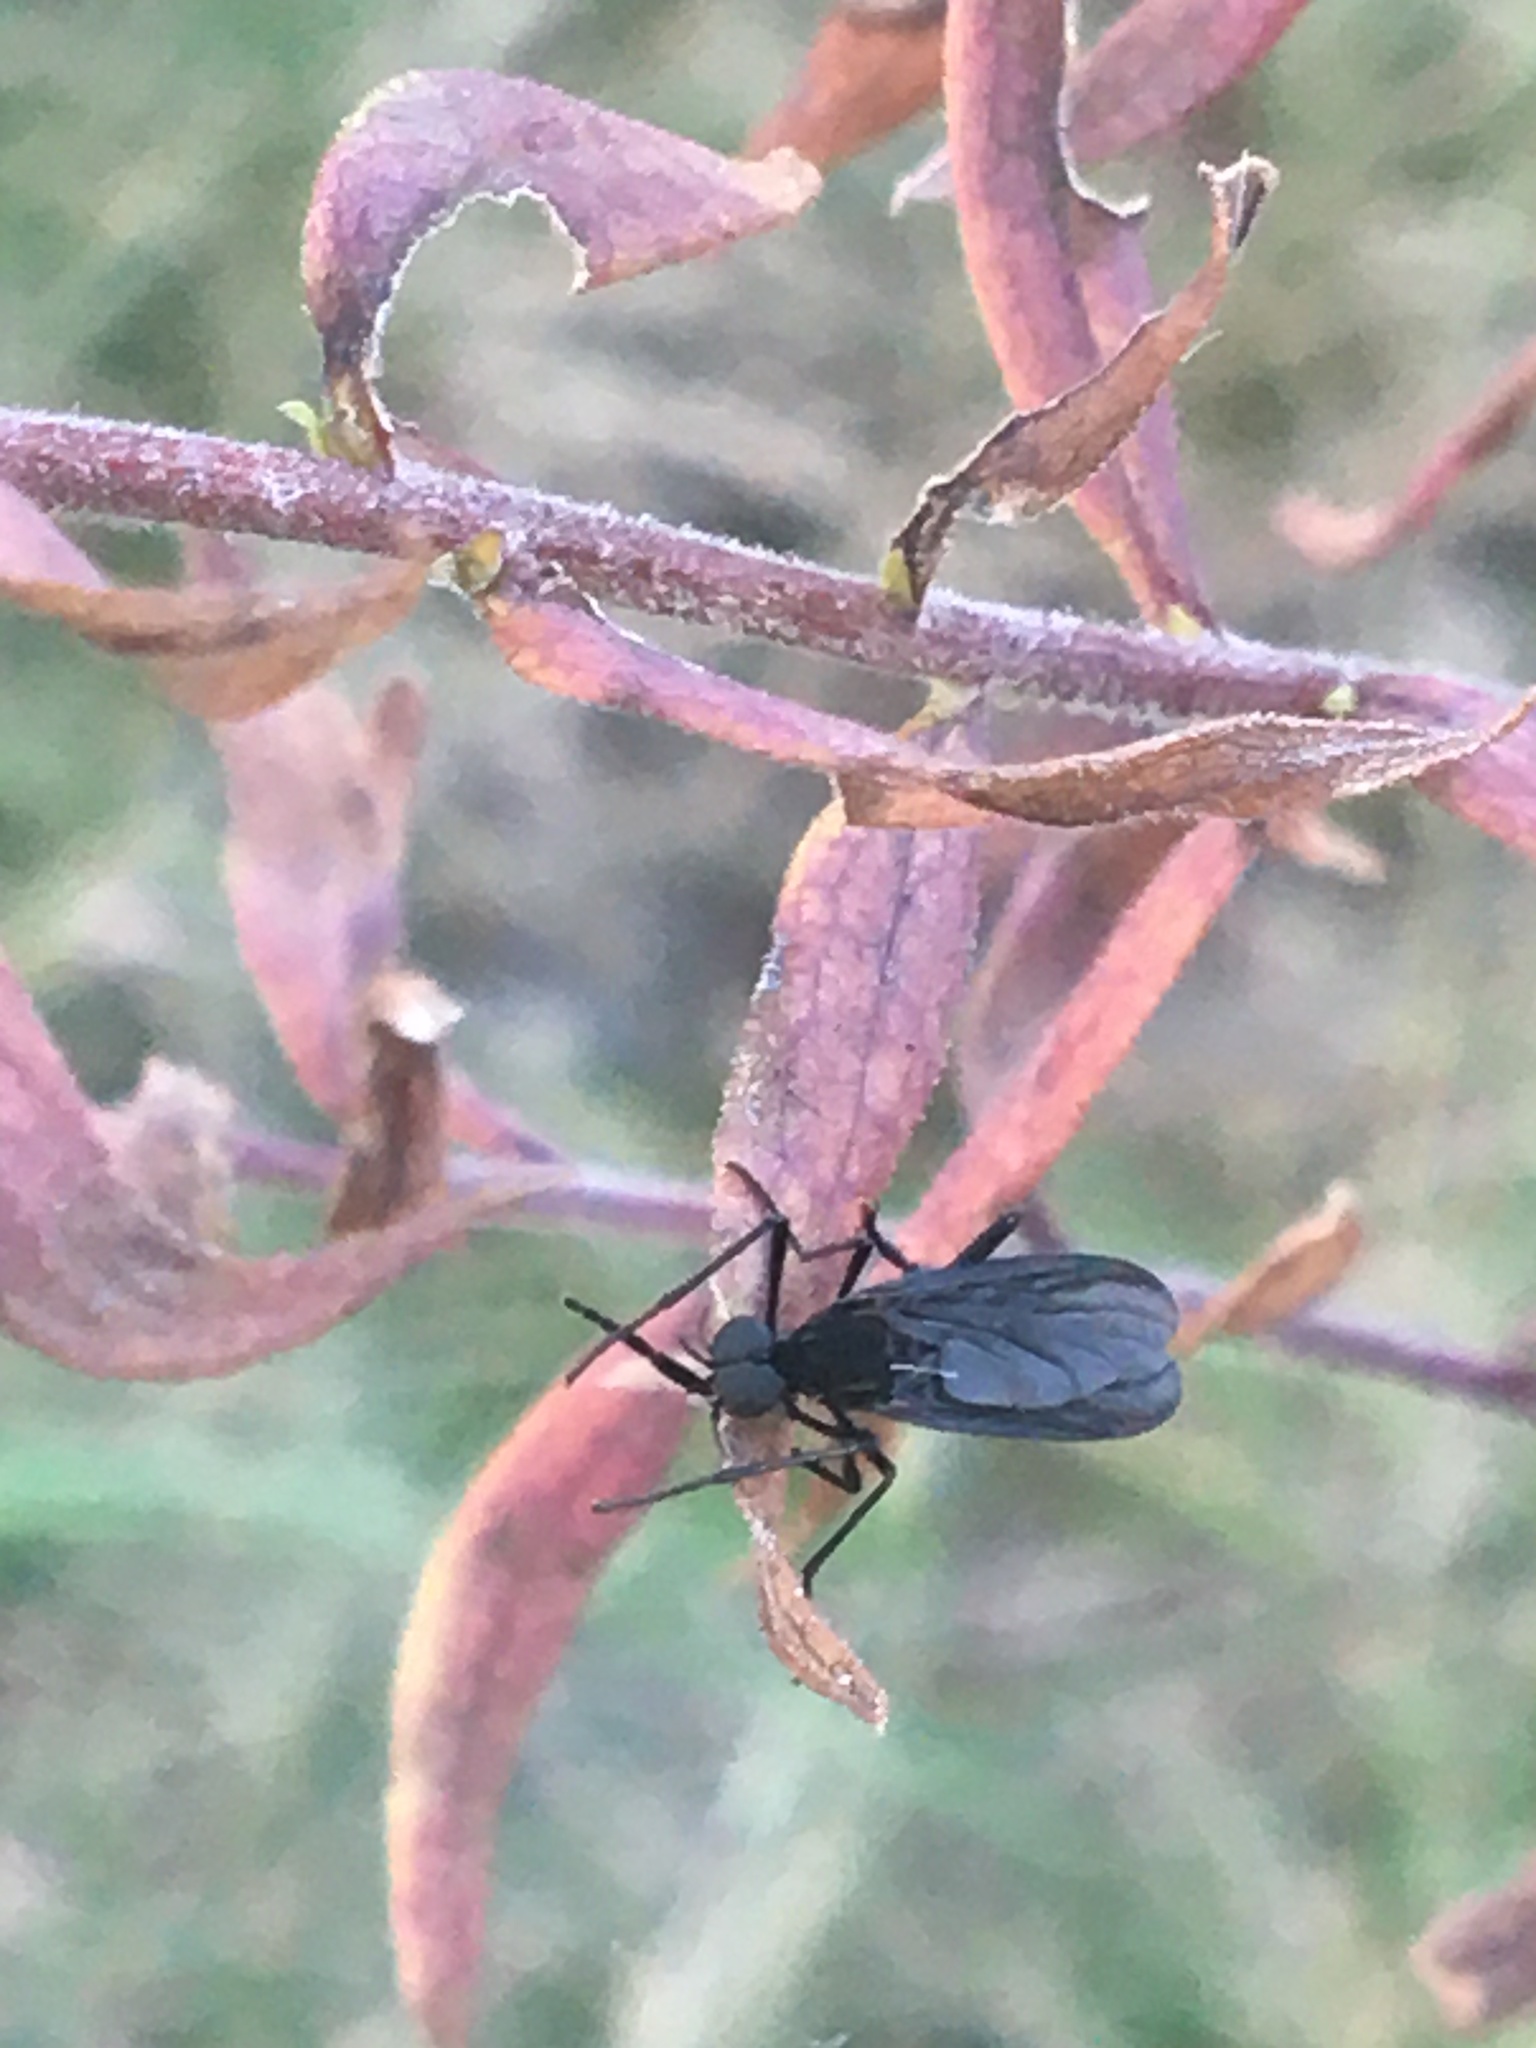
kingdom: Animalia
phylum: Arthropoda
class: Insecta
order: Diptera
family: Bibionidae
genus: Penthetria
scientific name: Penthetria heteroptera
